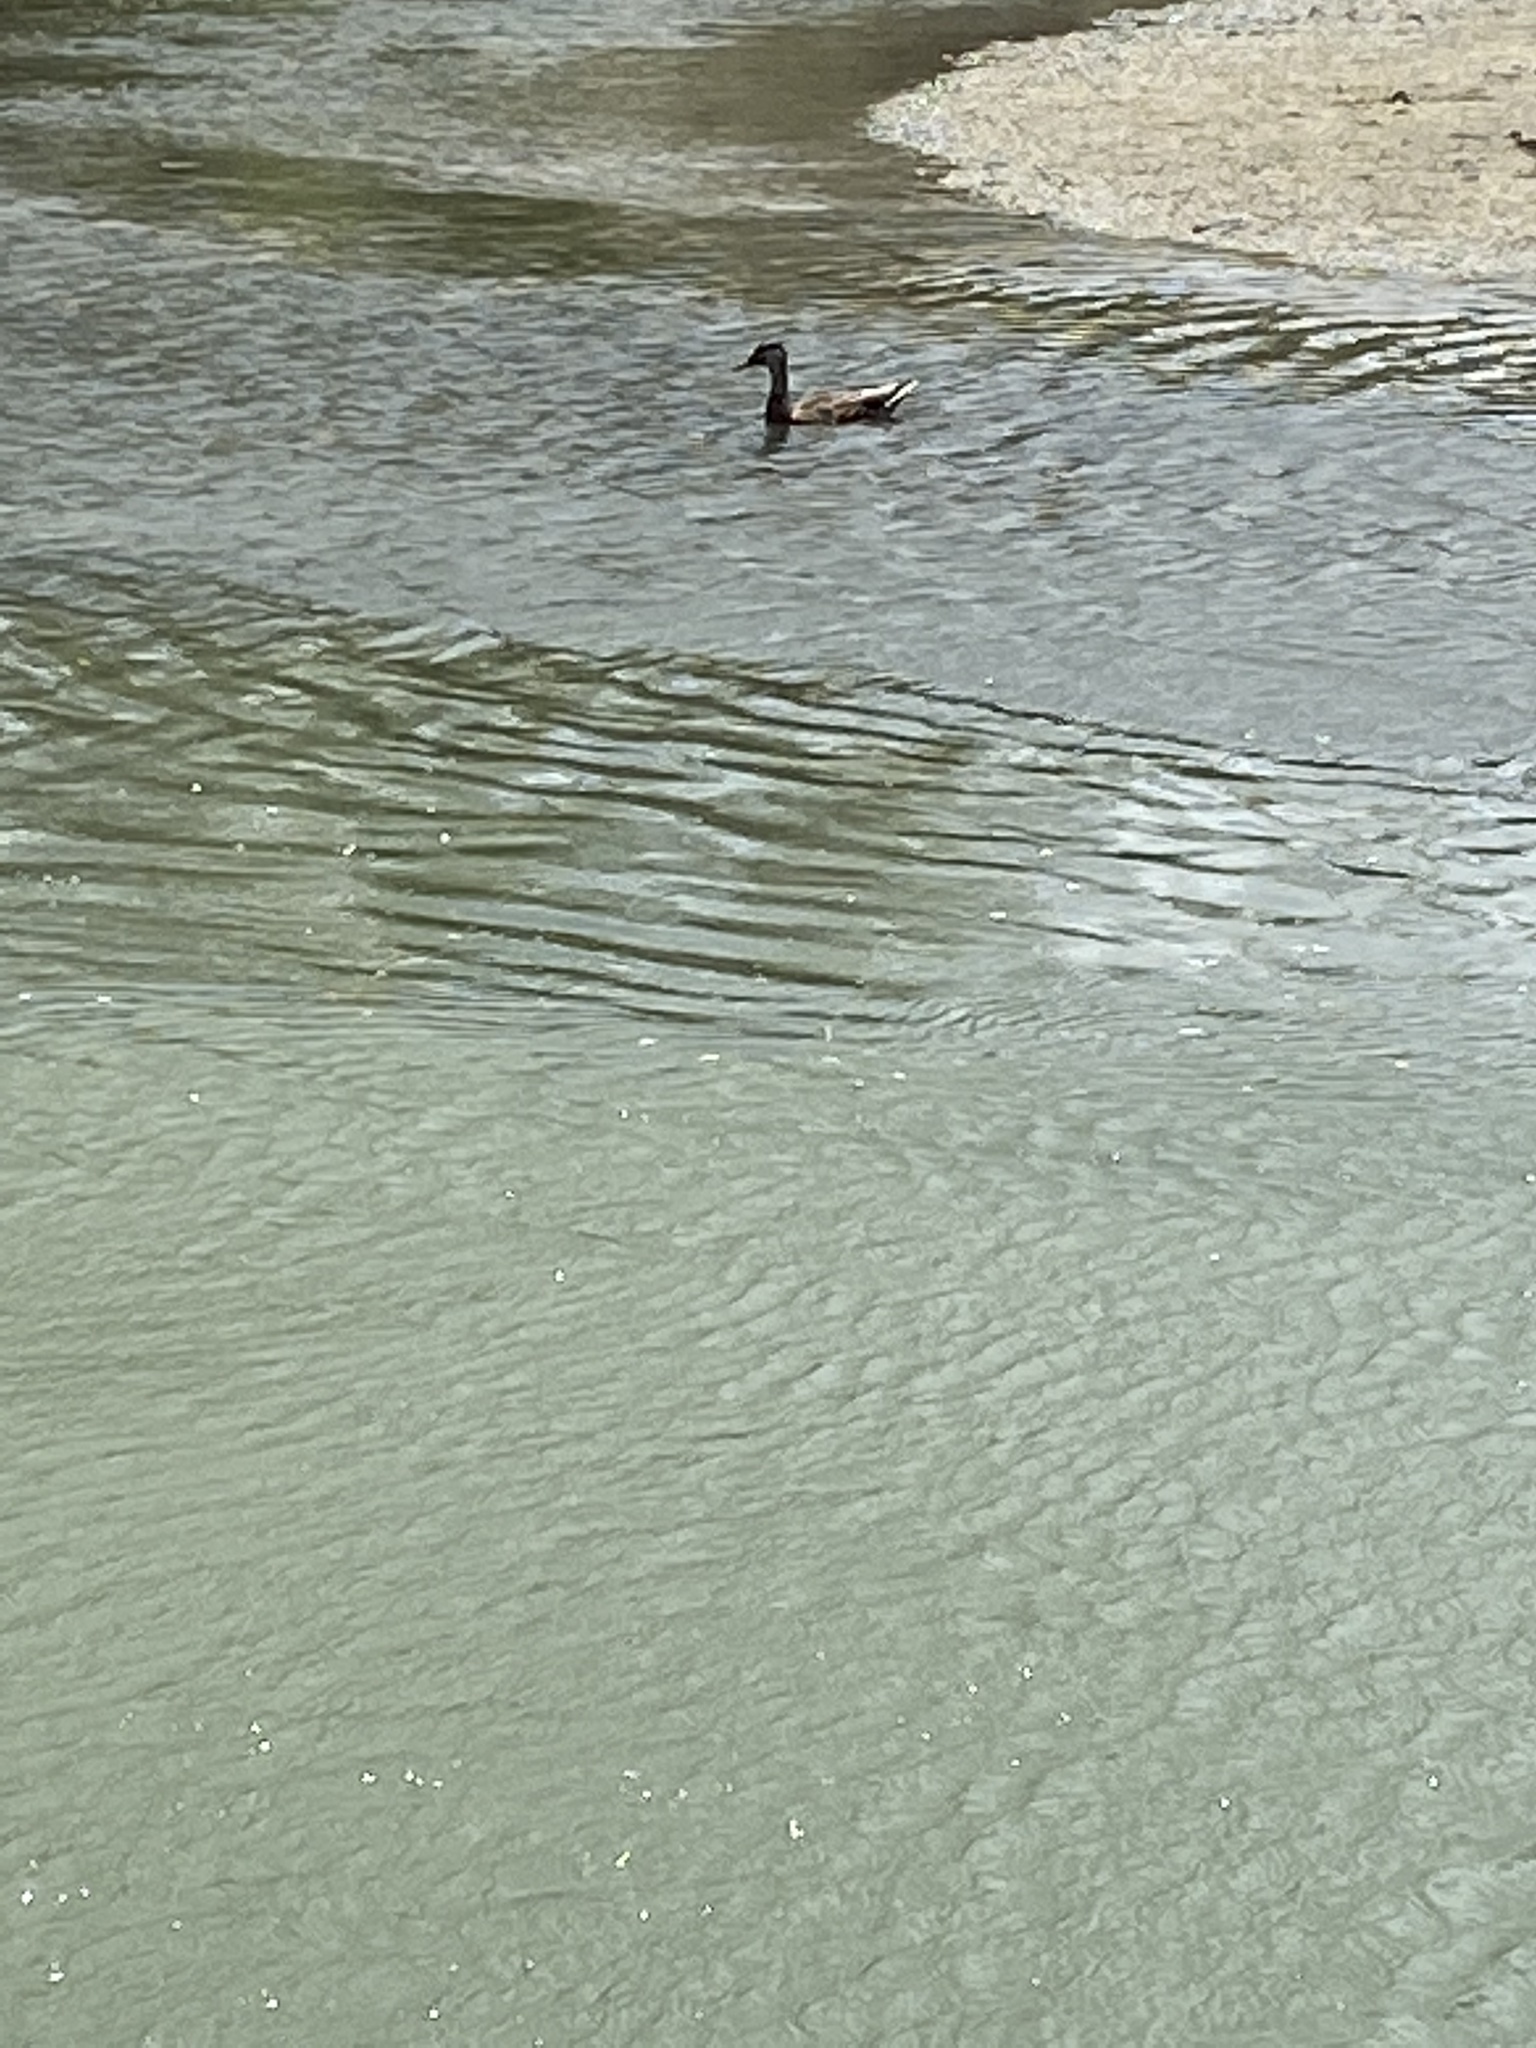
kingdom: Animalia
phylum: Chordata
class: Aves
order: Anseriformes
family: Anatidae
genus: Anas
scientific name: Anas platyrhynchos
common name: Mallard
